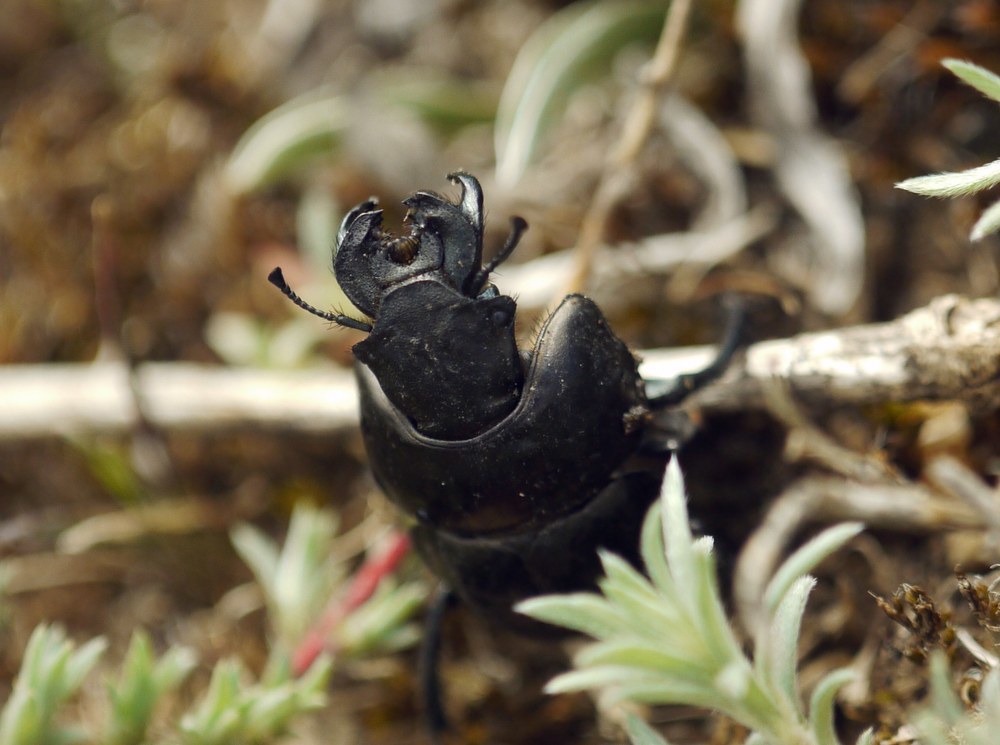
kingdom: Animalia
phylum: Arthropoda
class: Insecta
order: Coleoptera
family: Geotrupidae
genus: Lethrus
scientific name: Lethrus apterus
